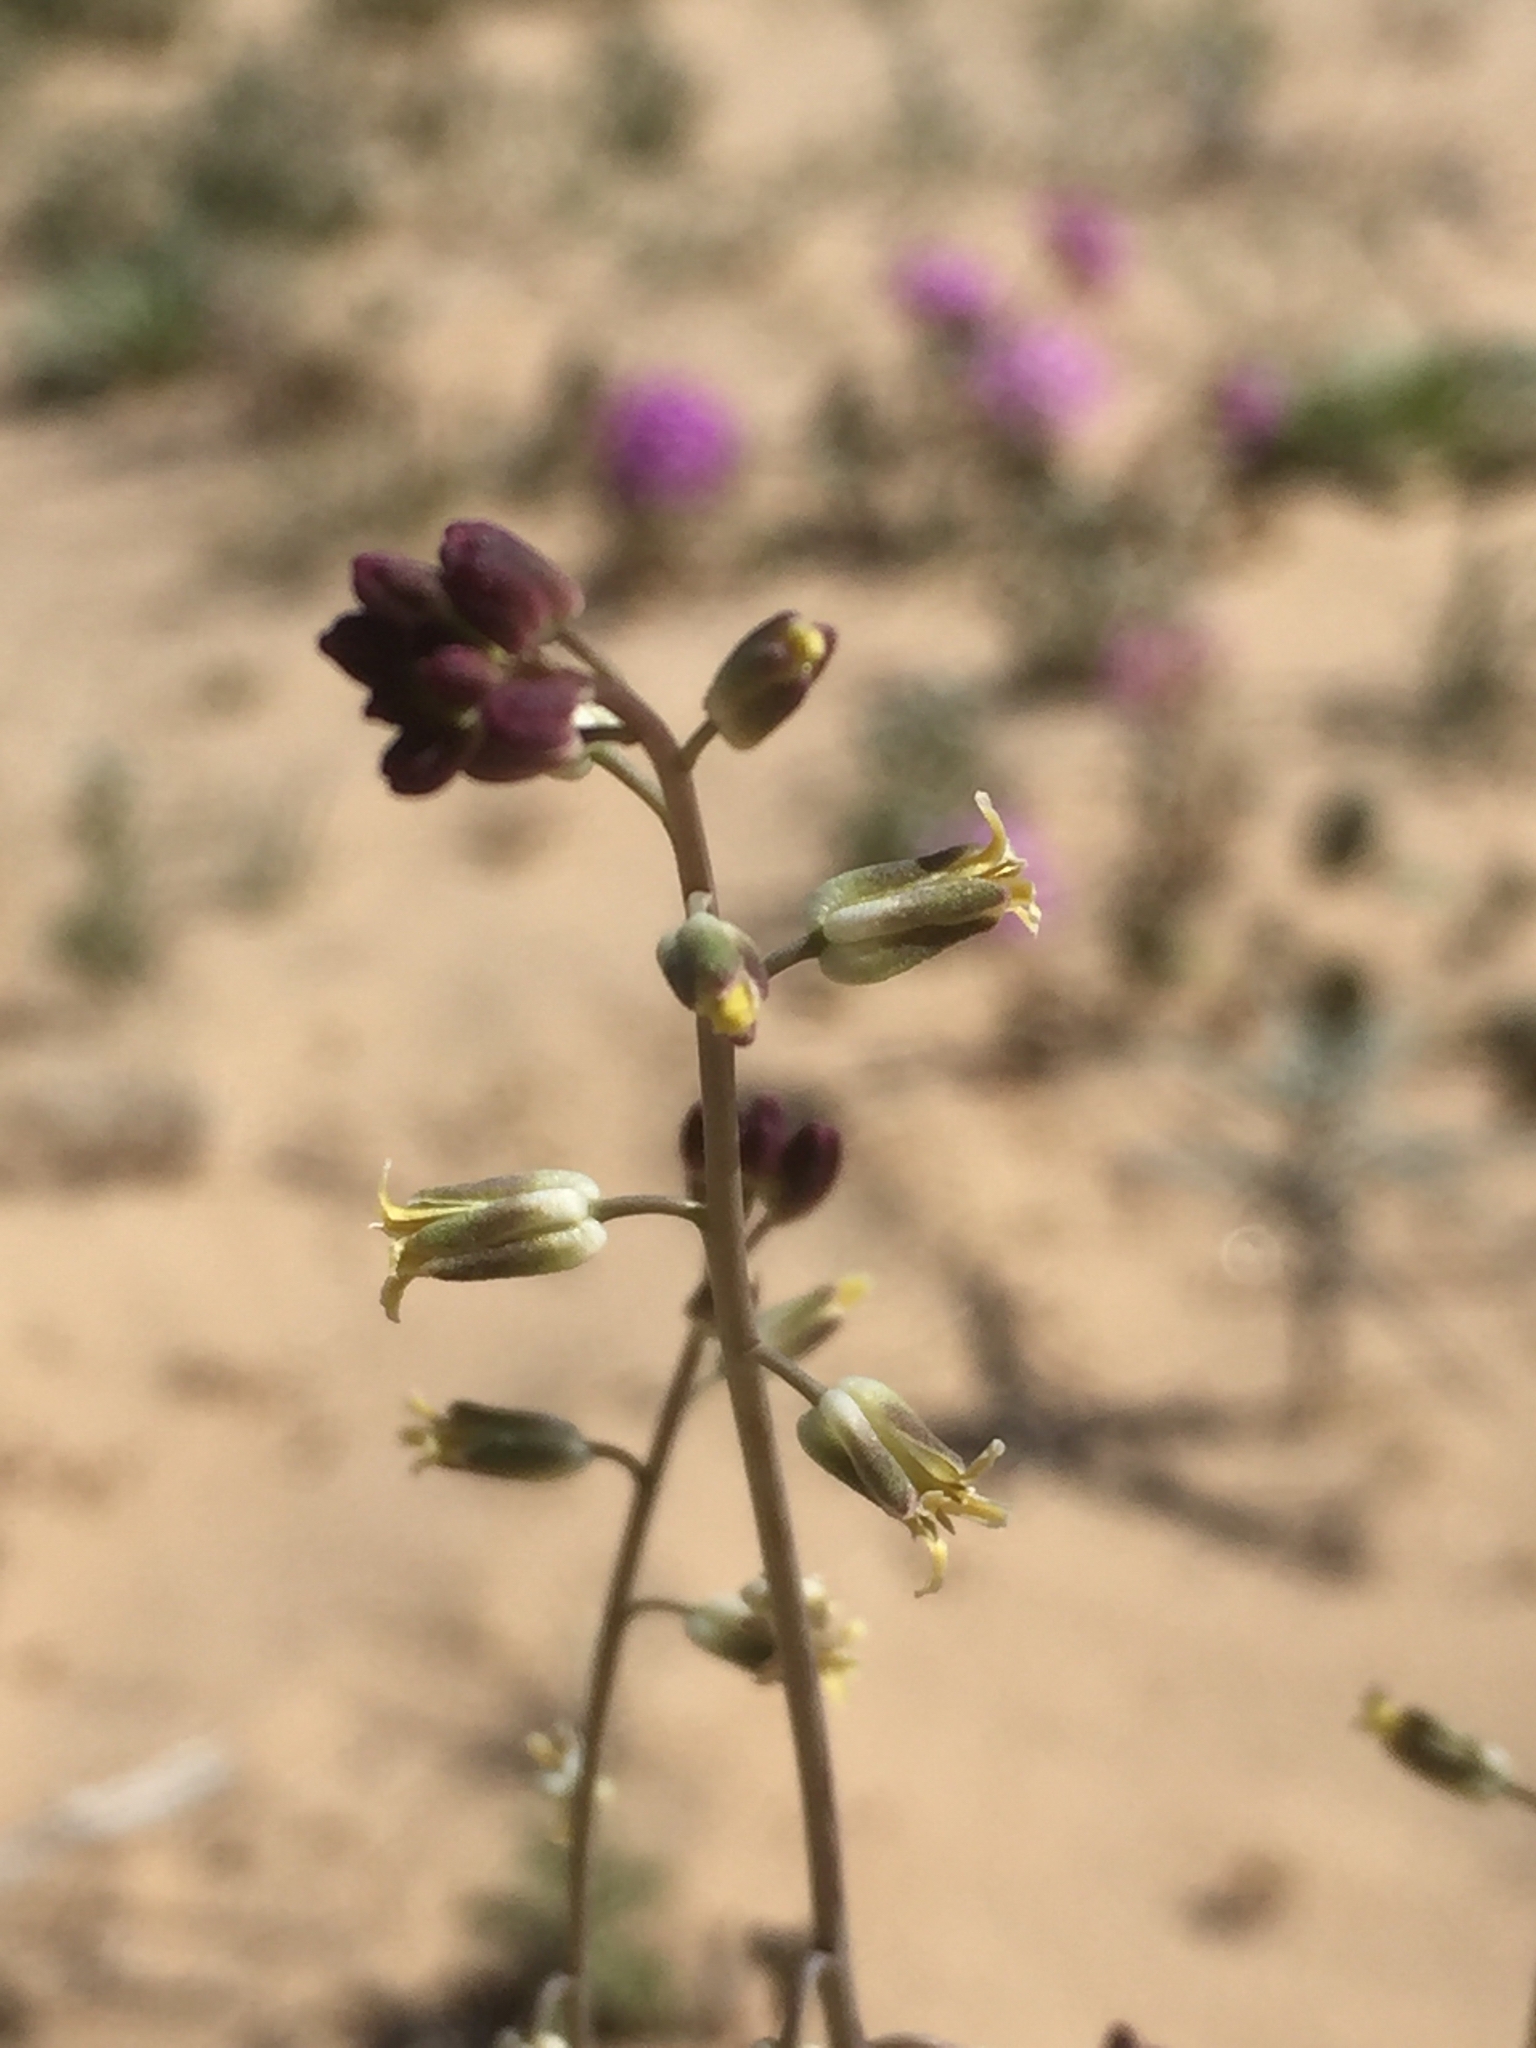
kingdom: Plantae
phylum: Tracheophyta
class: Magnoliopsida
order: Brassicales
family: Brassicaceae
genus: Streptanthus
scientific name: Streptanthus longirostris
